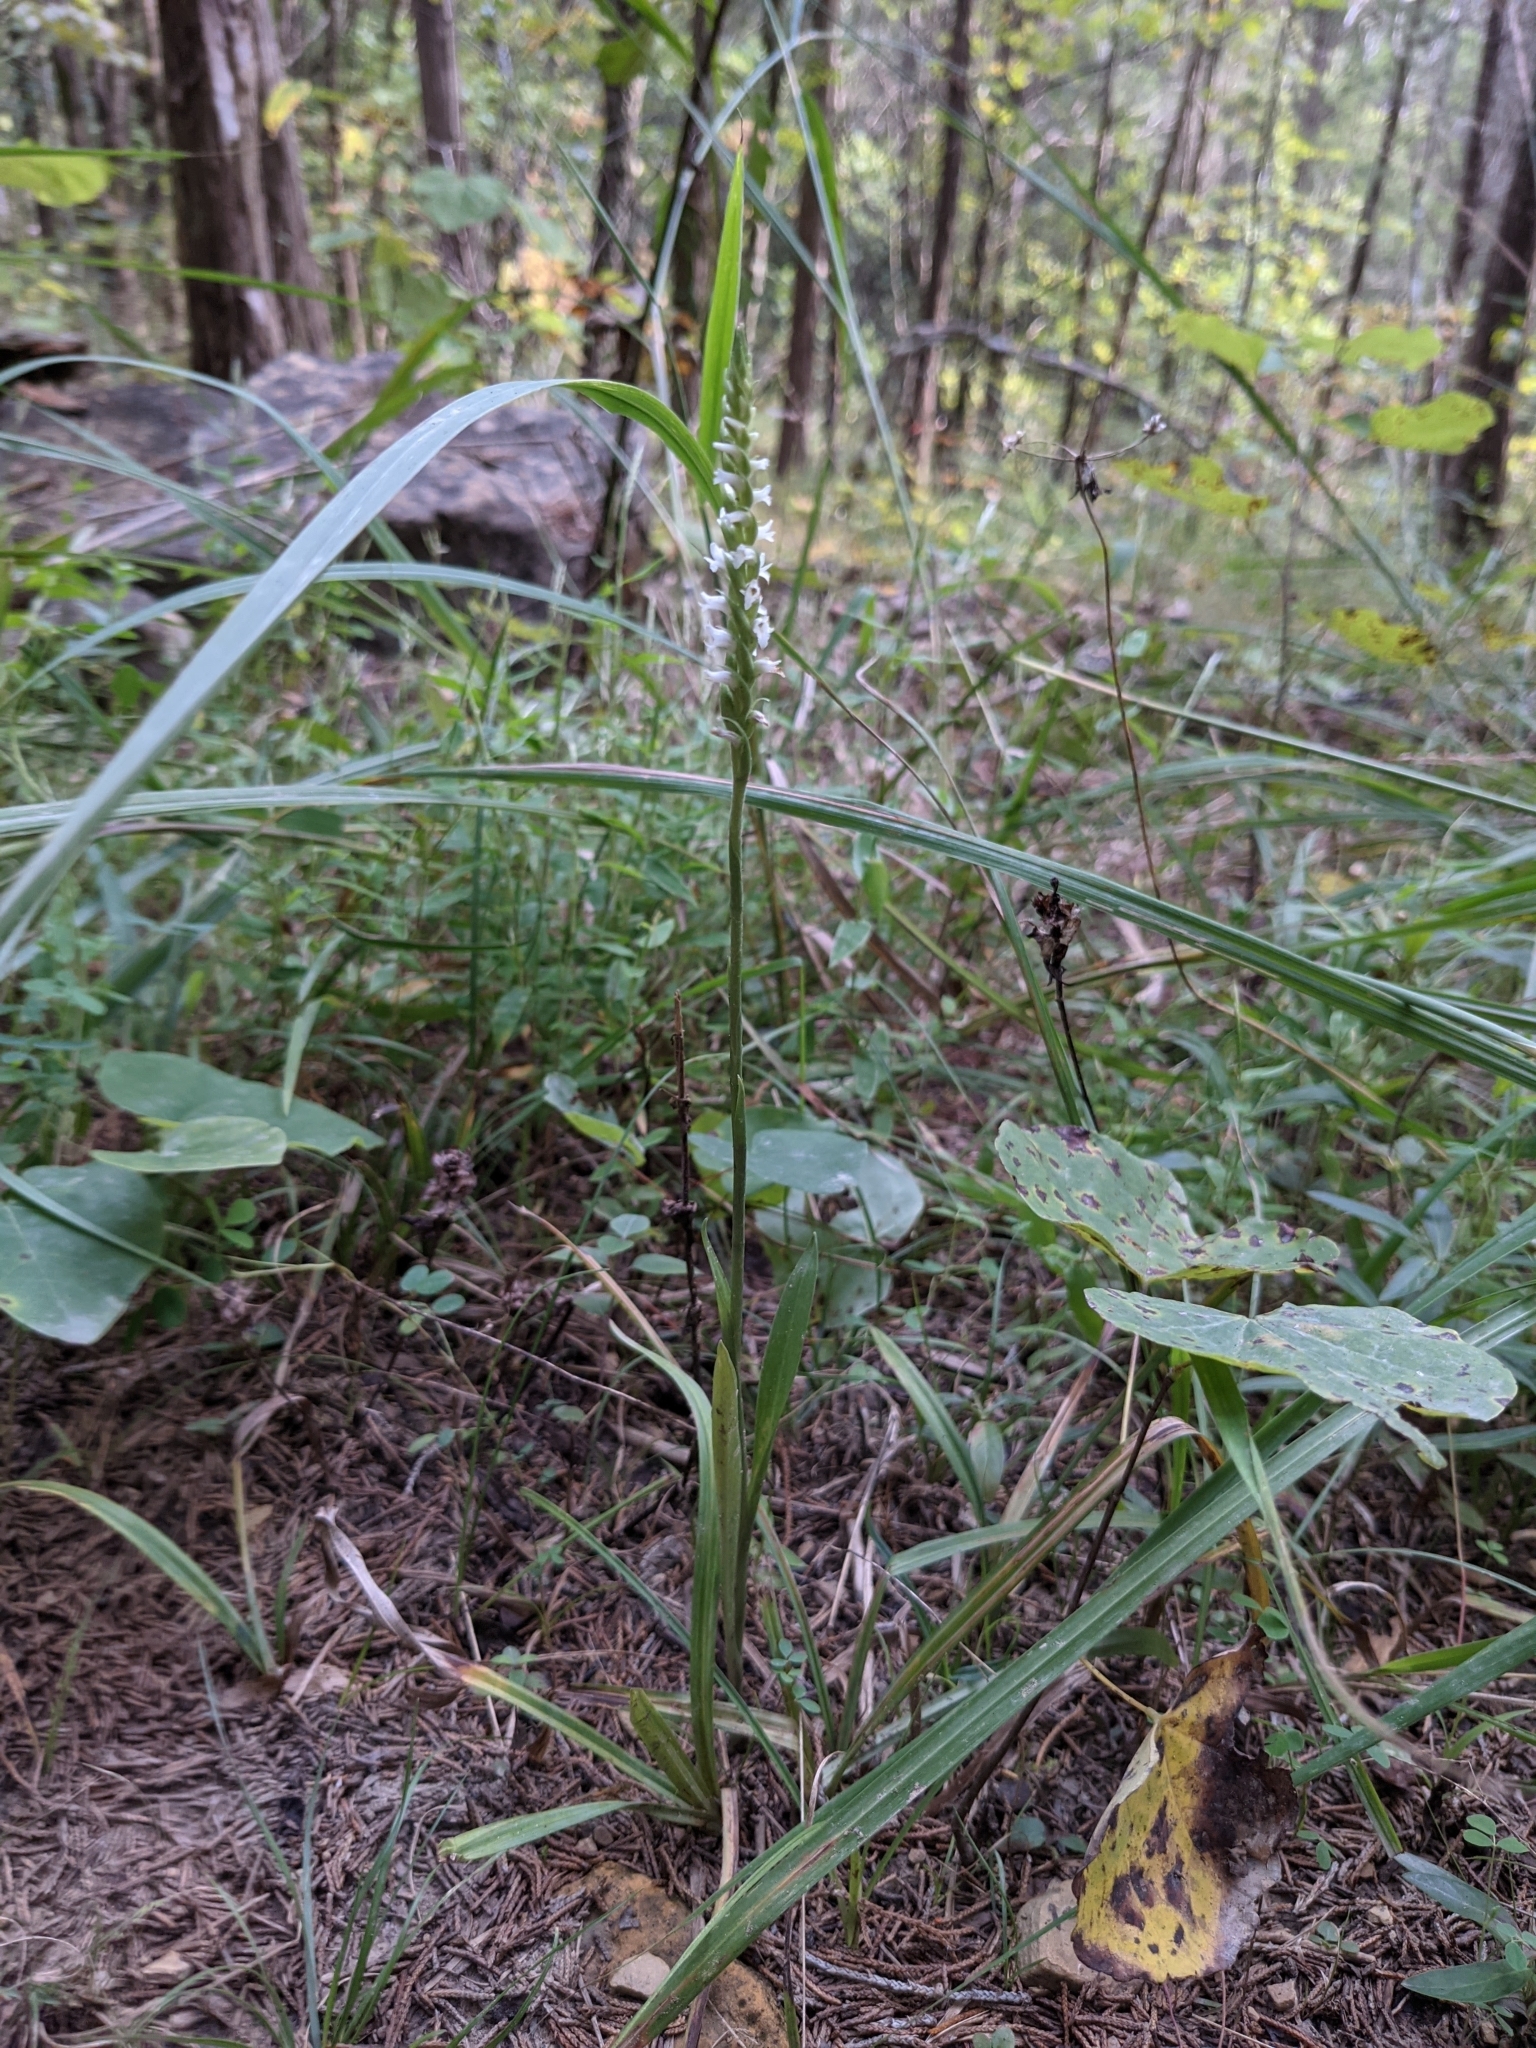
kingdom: Plantae
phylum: Tracheophyta
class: Liliopsida
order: Asparagales
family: Orchidaceae
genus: Spiranthes
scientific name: Spiranthes ovalis
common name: October ladies'-tresses
